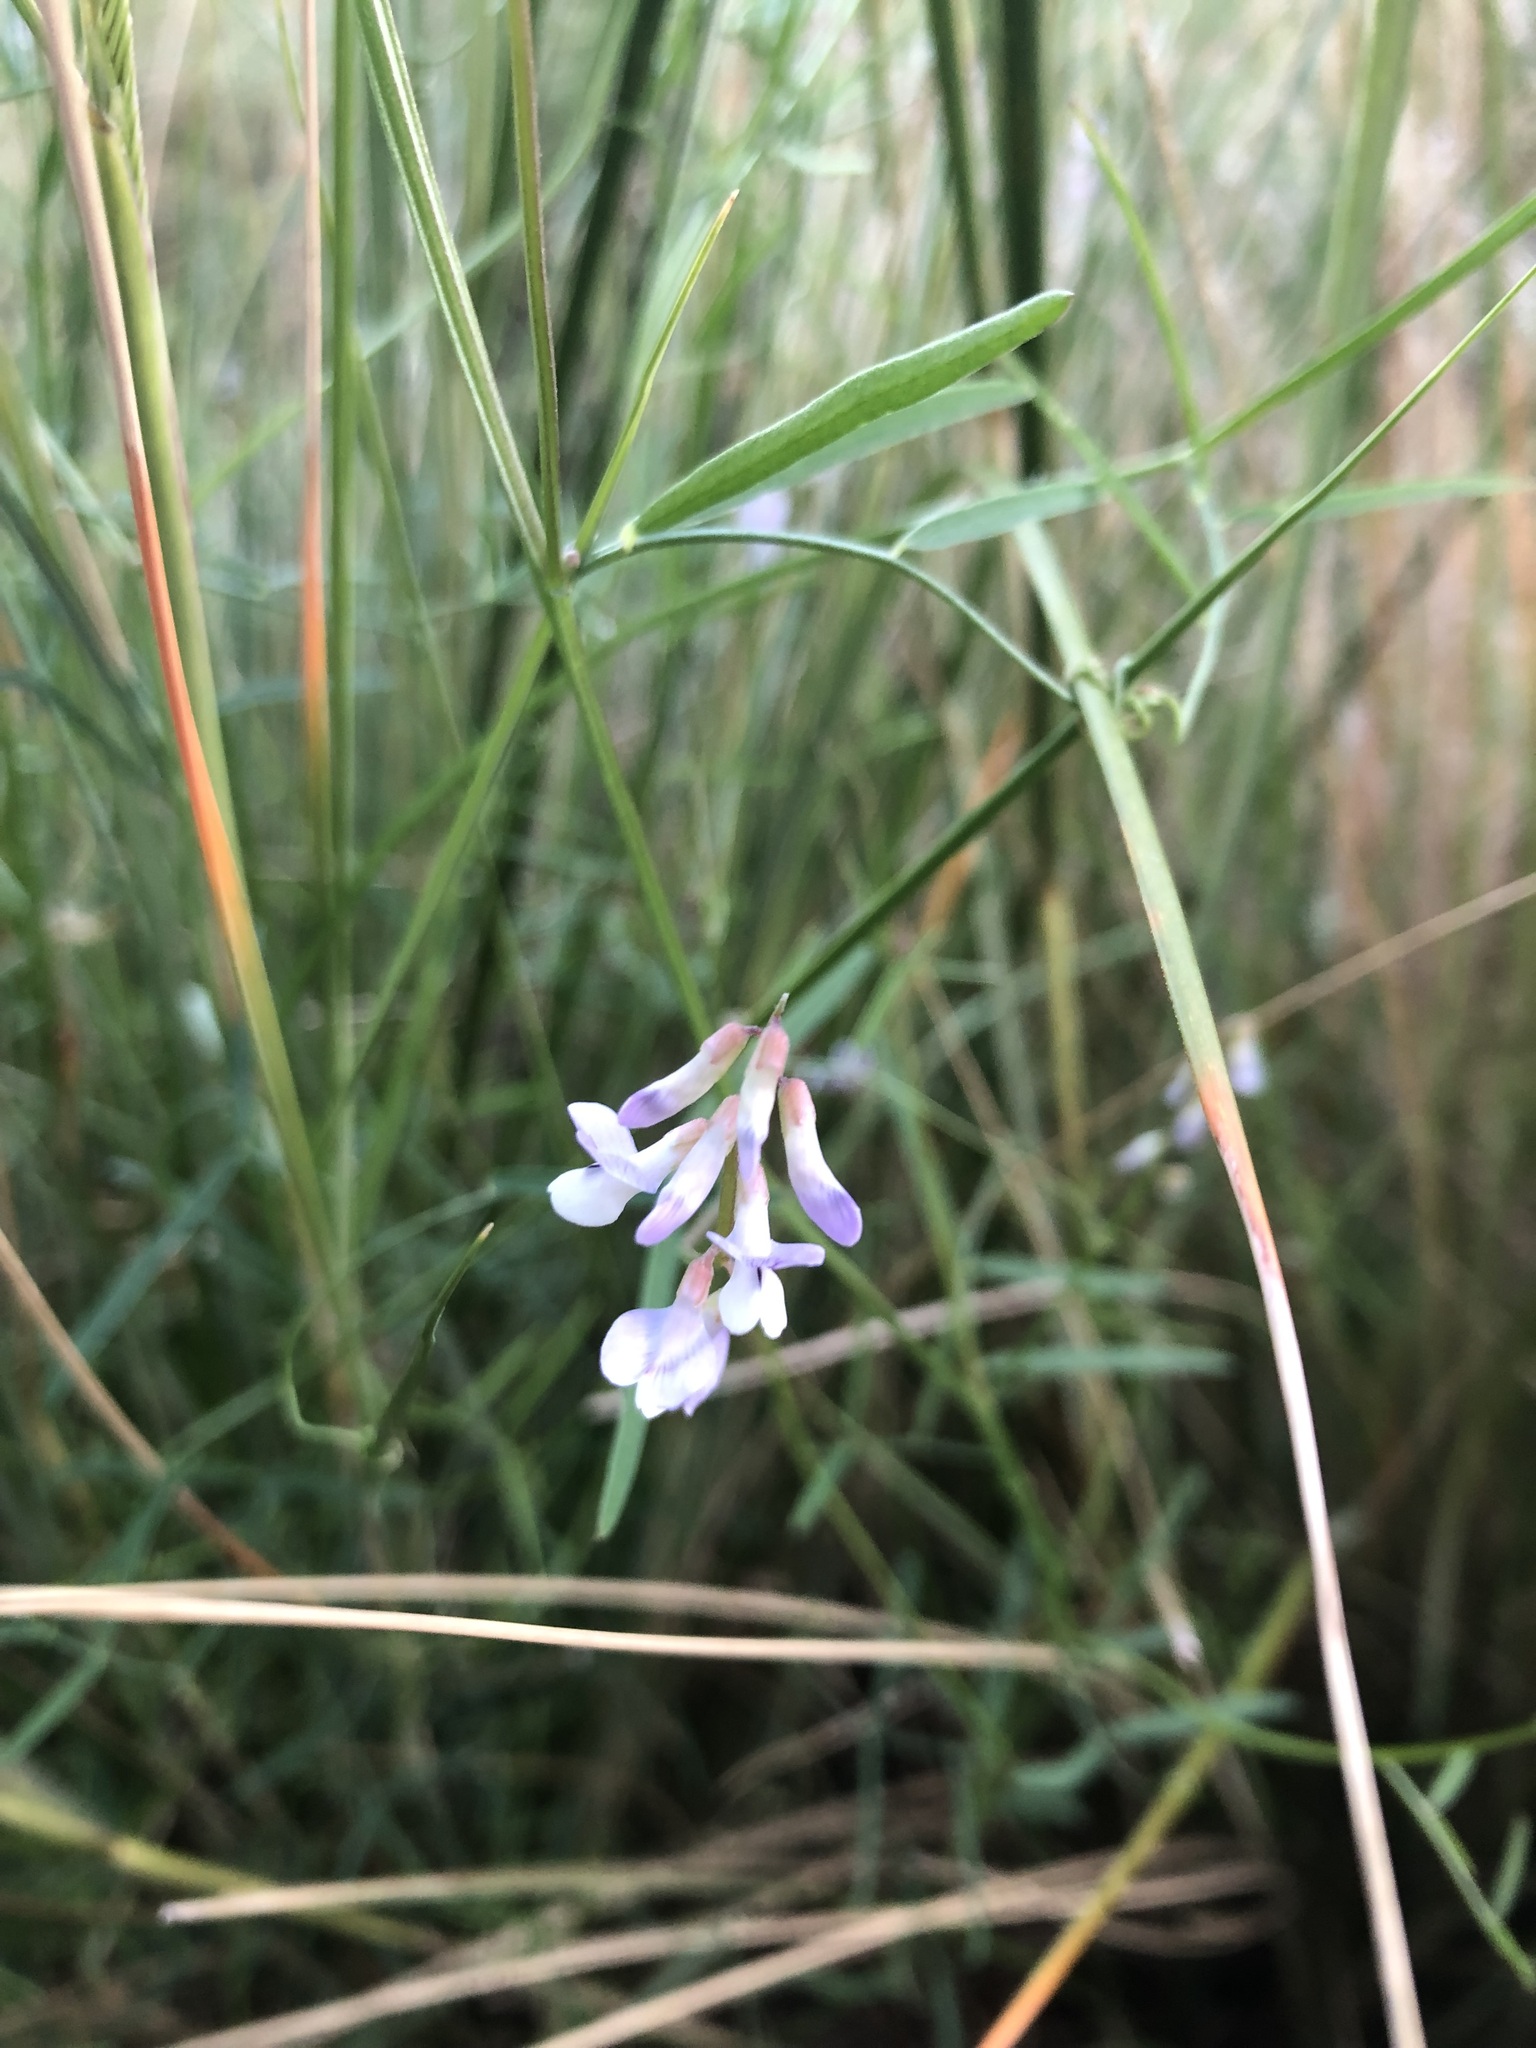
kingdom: Plantae
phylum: Tracheophyta
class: Magnoliopsida
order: Fabales
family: Fabaceae
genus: Vicia
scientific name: Vicia acutifolia
